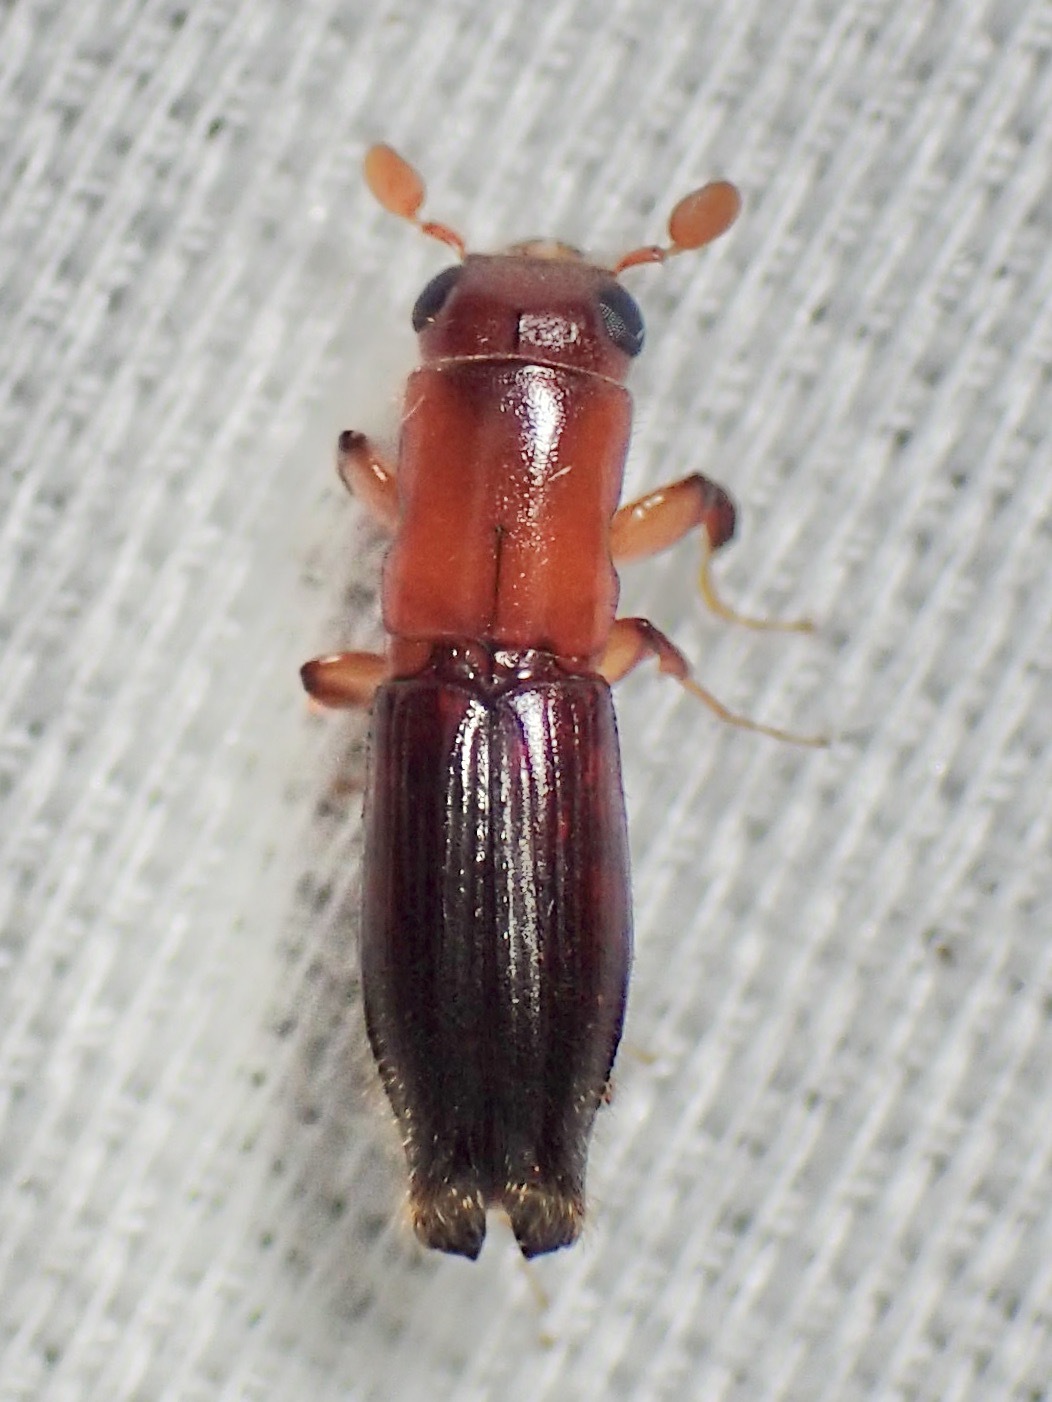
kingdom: Animalia
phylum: Arthropoda
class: Insecta
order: Coleoptera
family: Curculionidae
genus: Treptoplatypus
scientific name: Treptoplatypus
